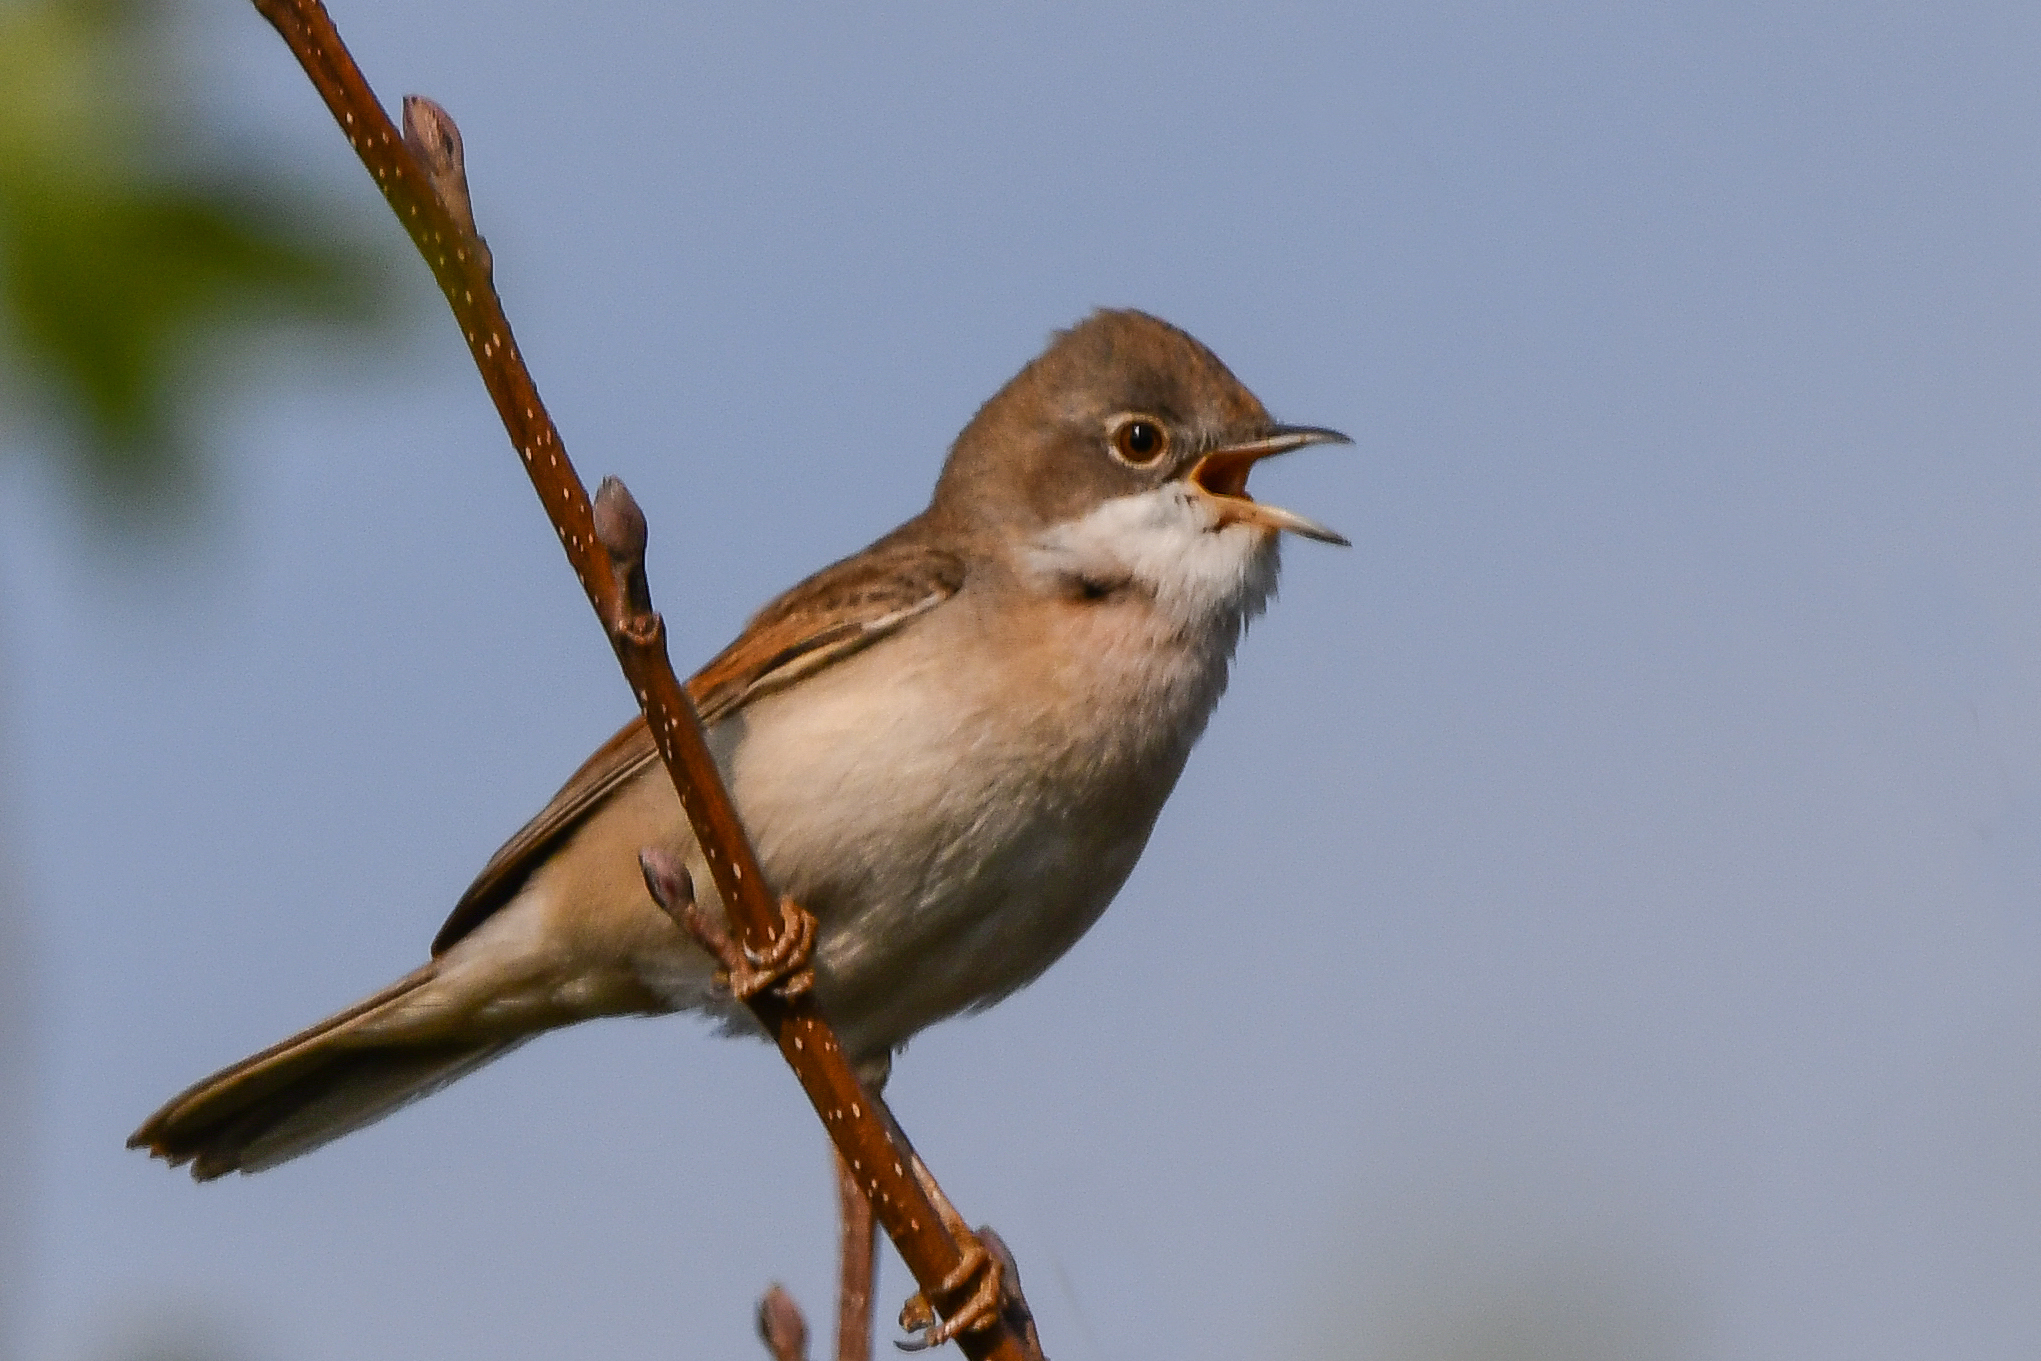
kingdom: Animalia
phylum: Chordata
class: Aves
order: Passeriformes
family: Sylviidae
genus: Sylvia
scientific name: Sylvia communis
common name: Common whitethroat
